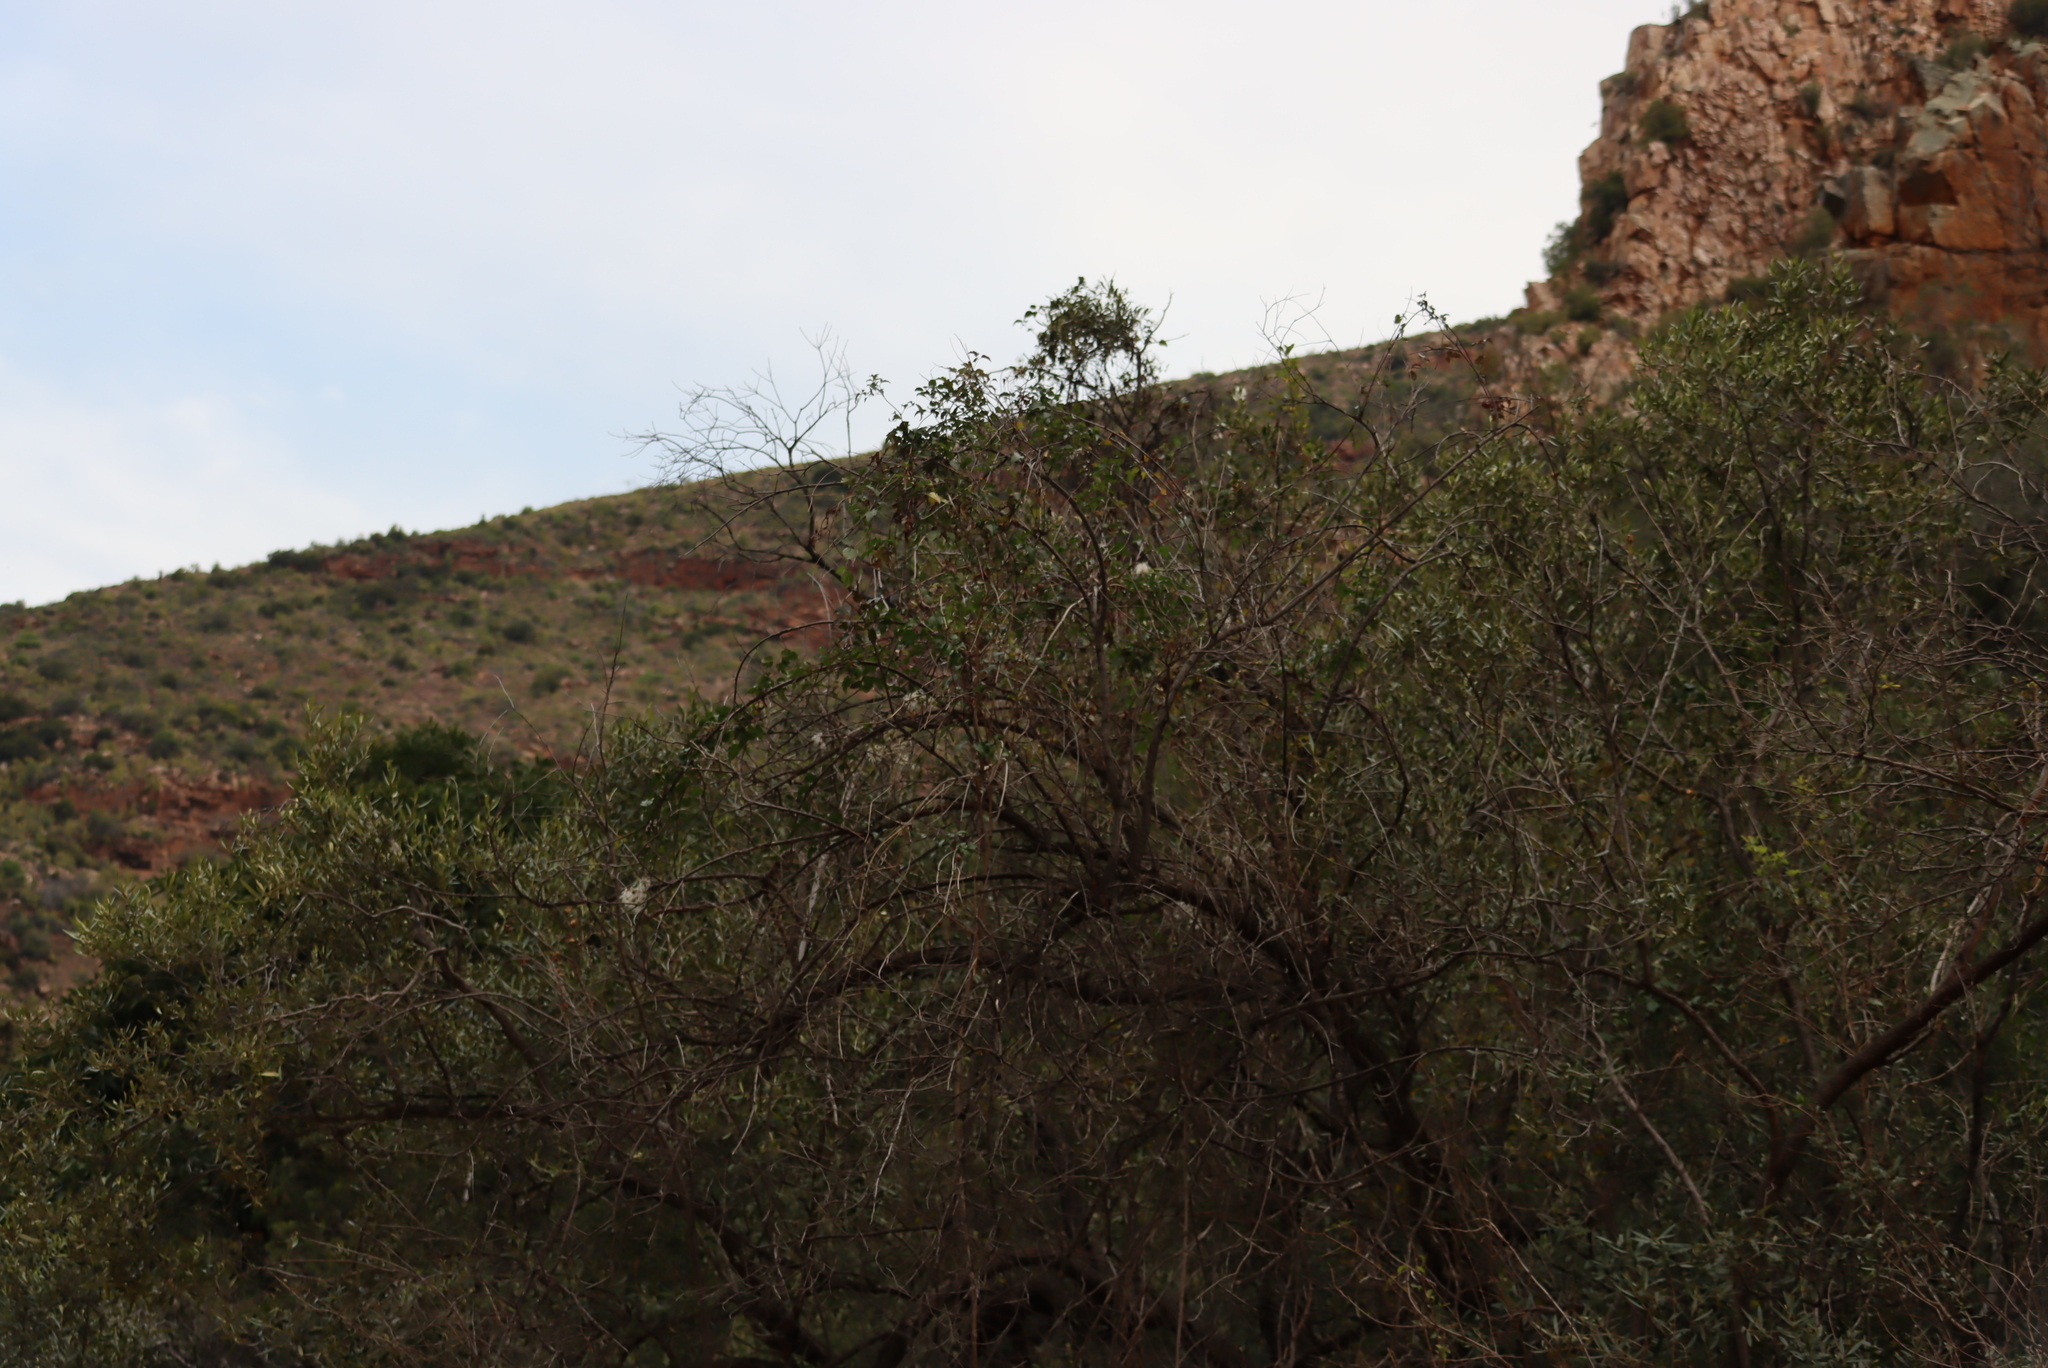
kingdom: Plantae
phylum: Tracheophyta
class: Magnoliopsida
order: Ranunculales
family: Ranunculaceae
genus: Clematis
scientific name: Clematis brachiata
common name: Traveler's-joy
